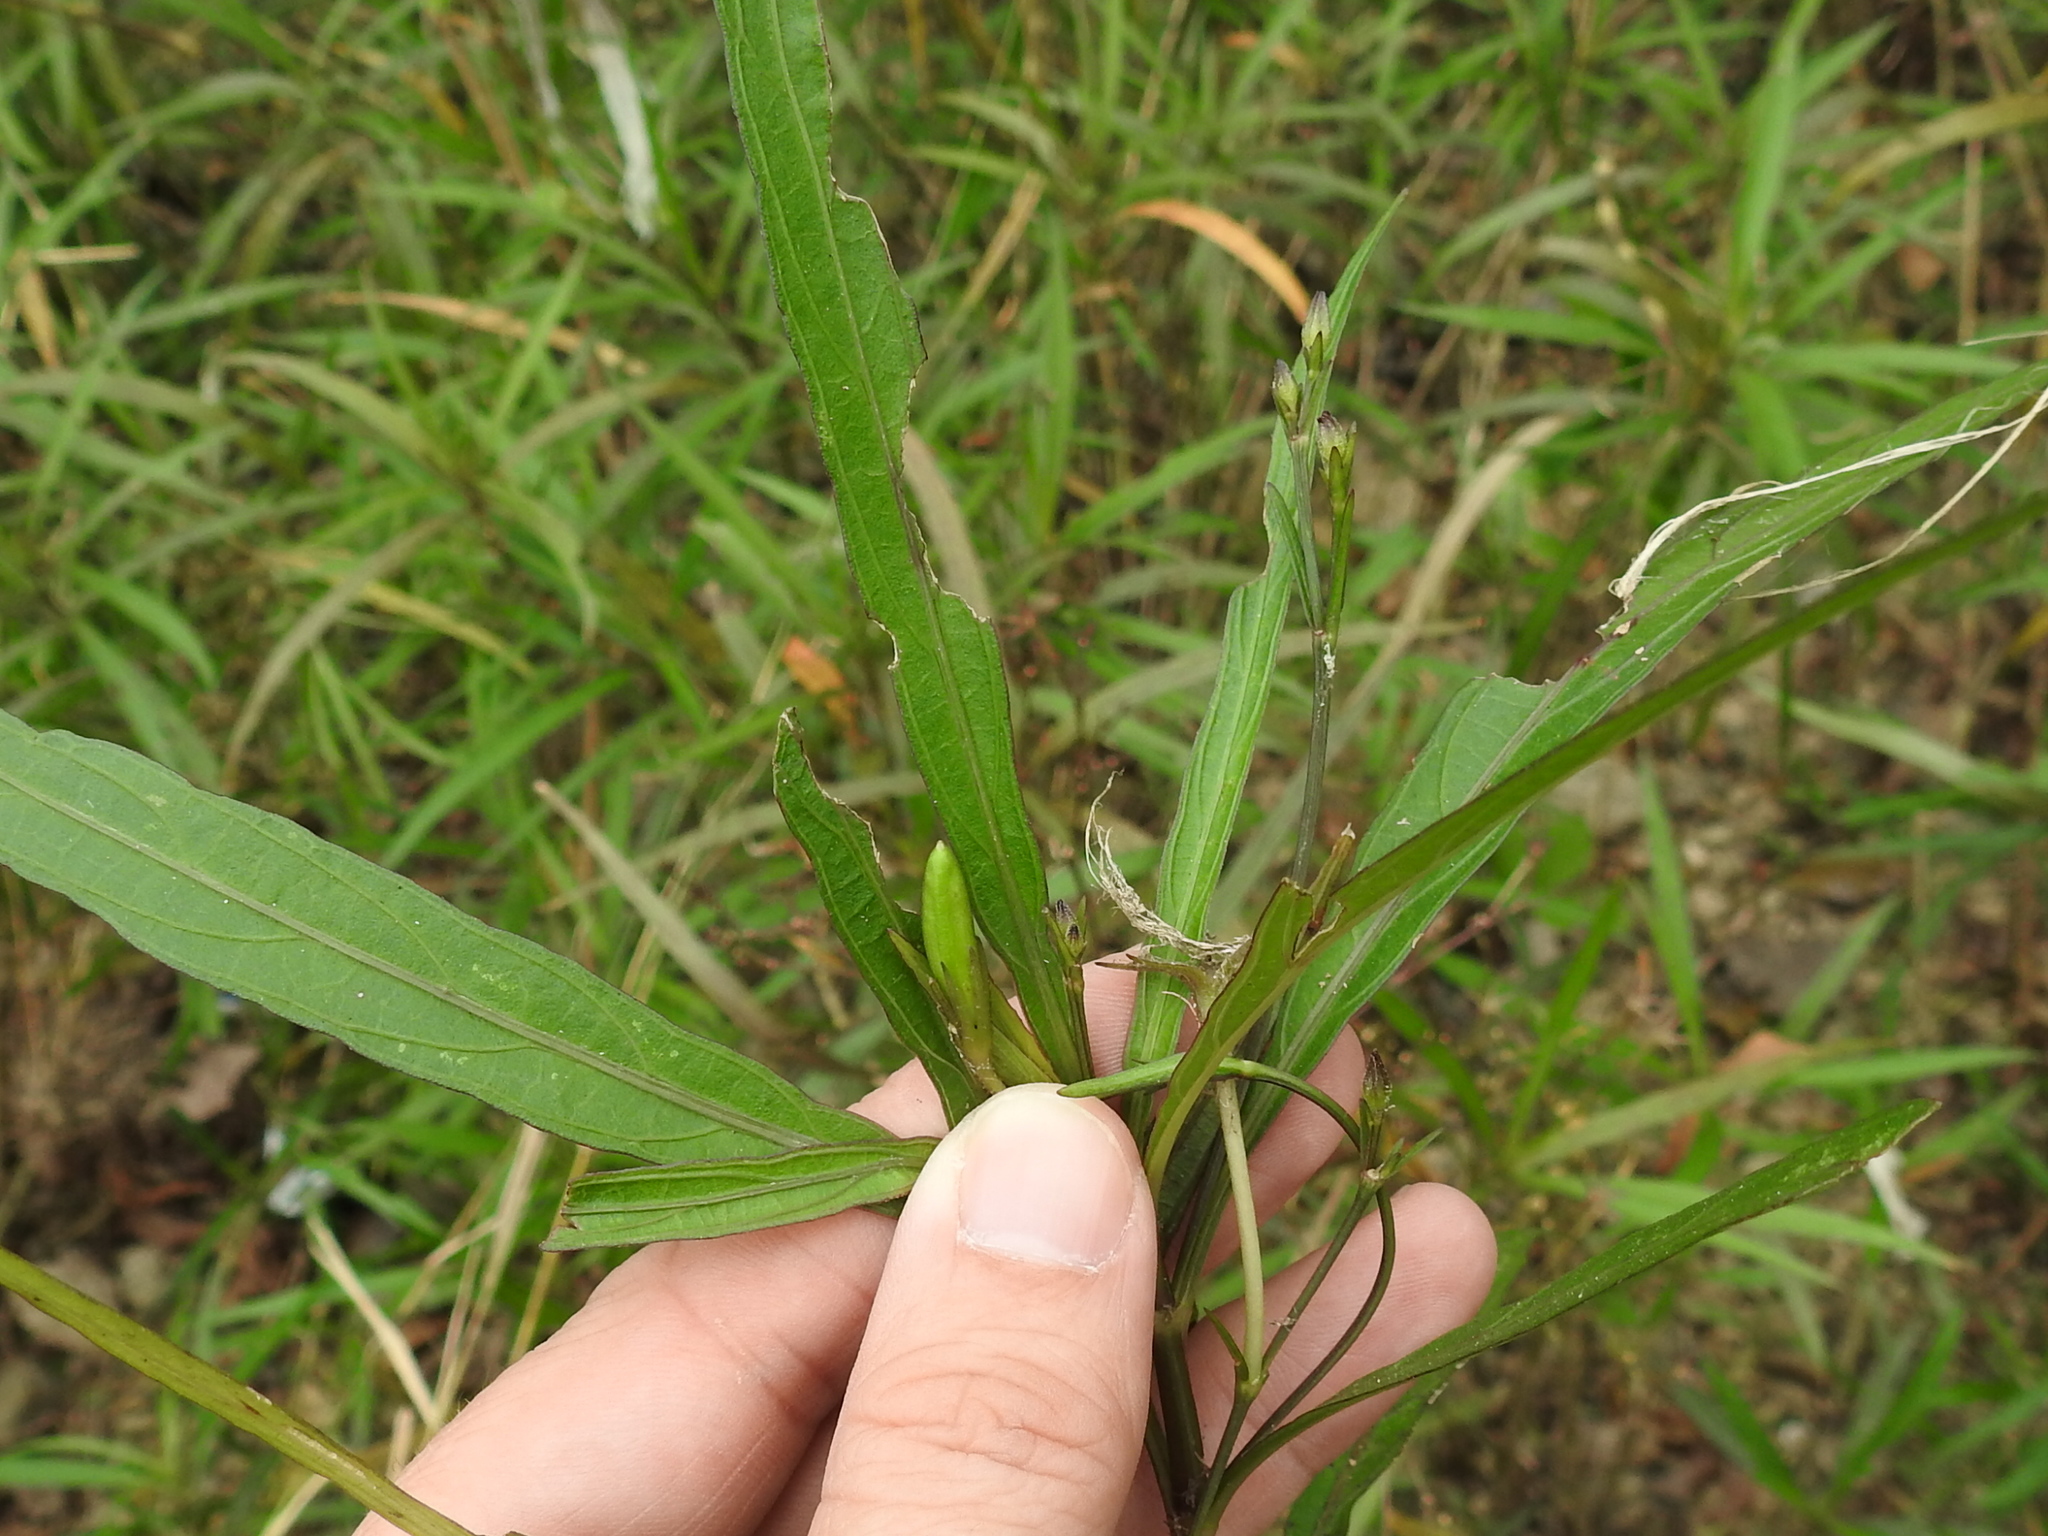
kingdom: Plantae
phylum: Tracheophyta
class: Magnoliopsida
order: Lamiales
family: Acanthaceae
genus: Ruellia
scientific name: Ruellia simplex
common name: Softseed wild petunia
